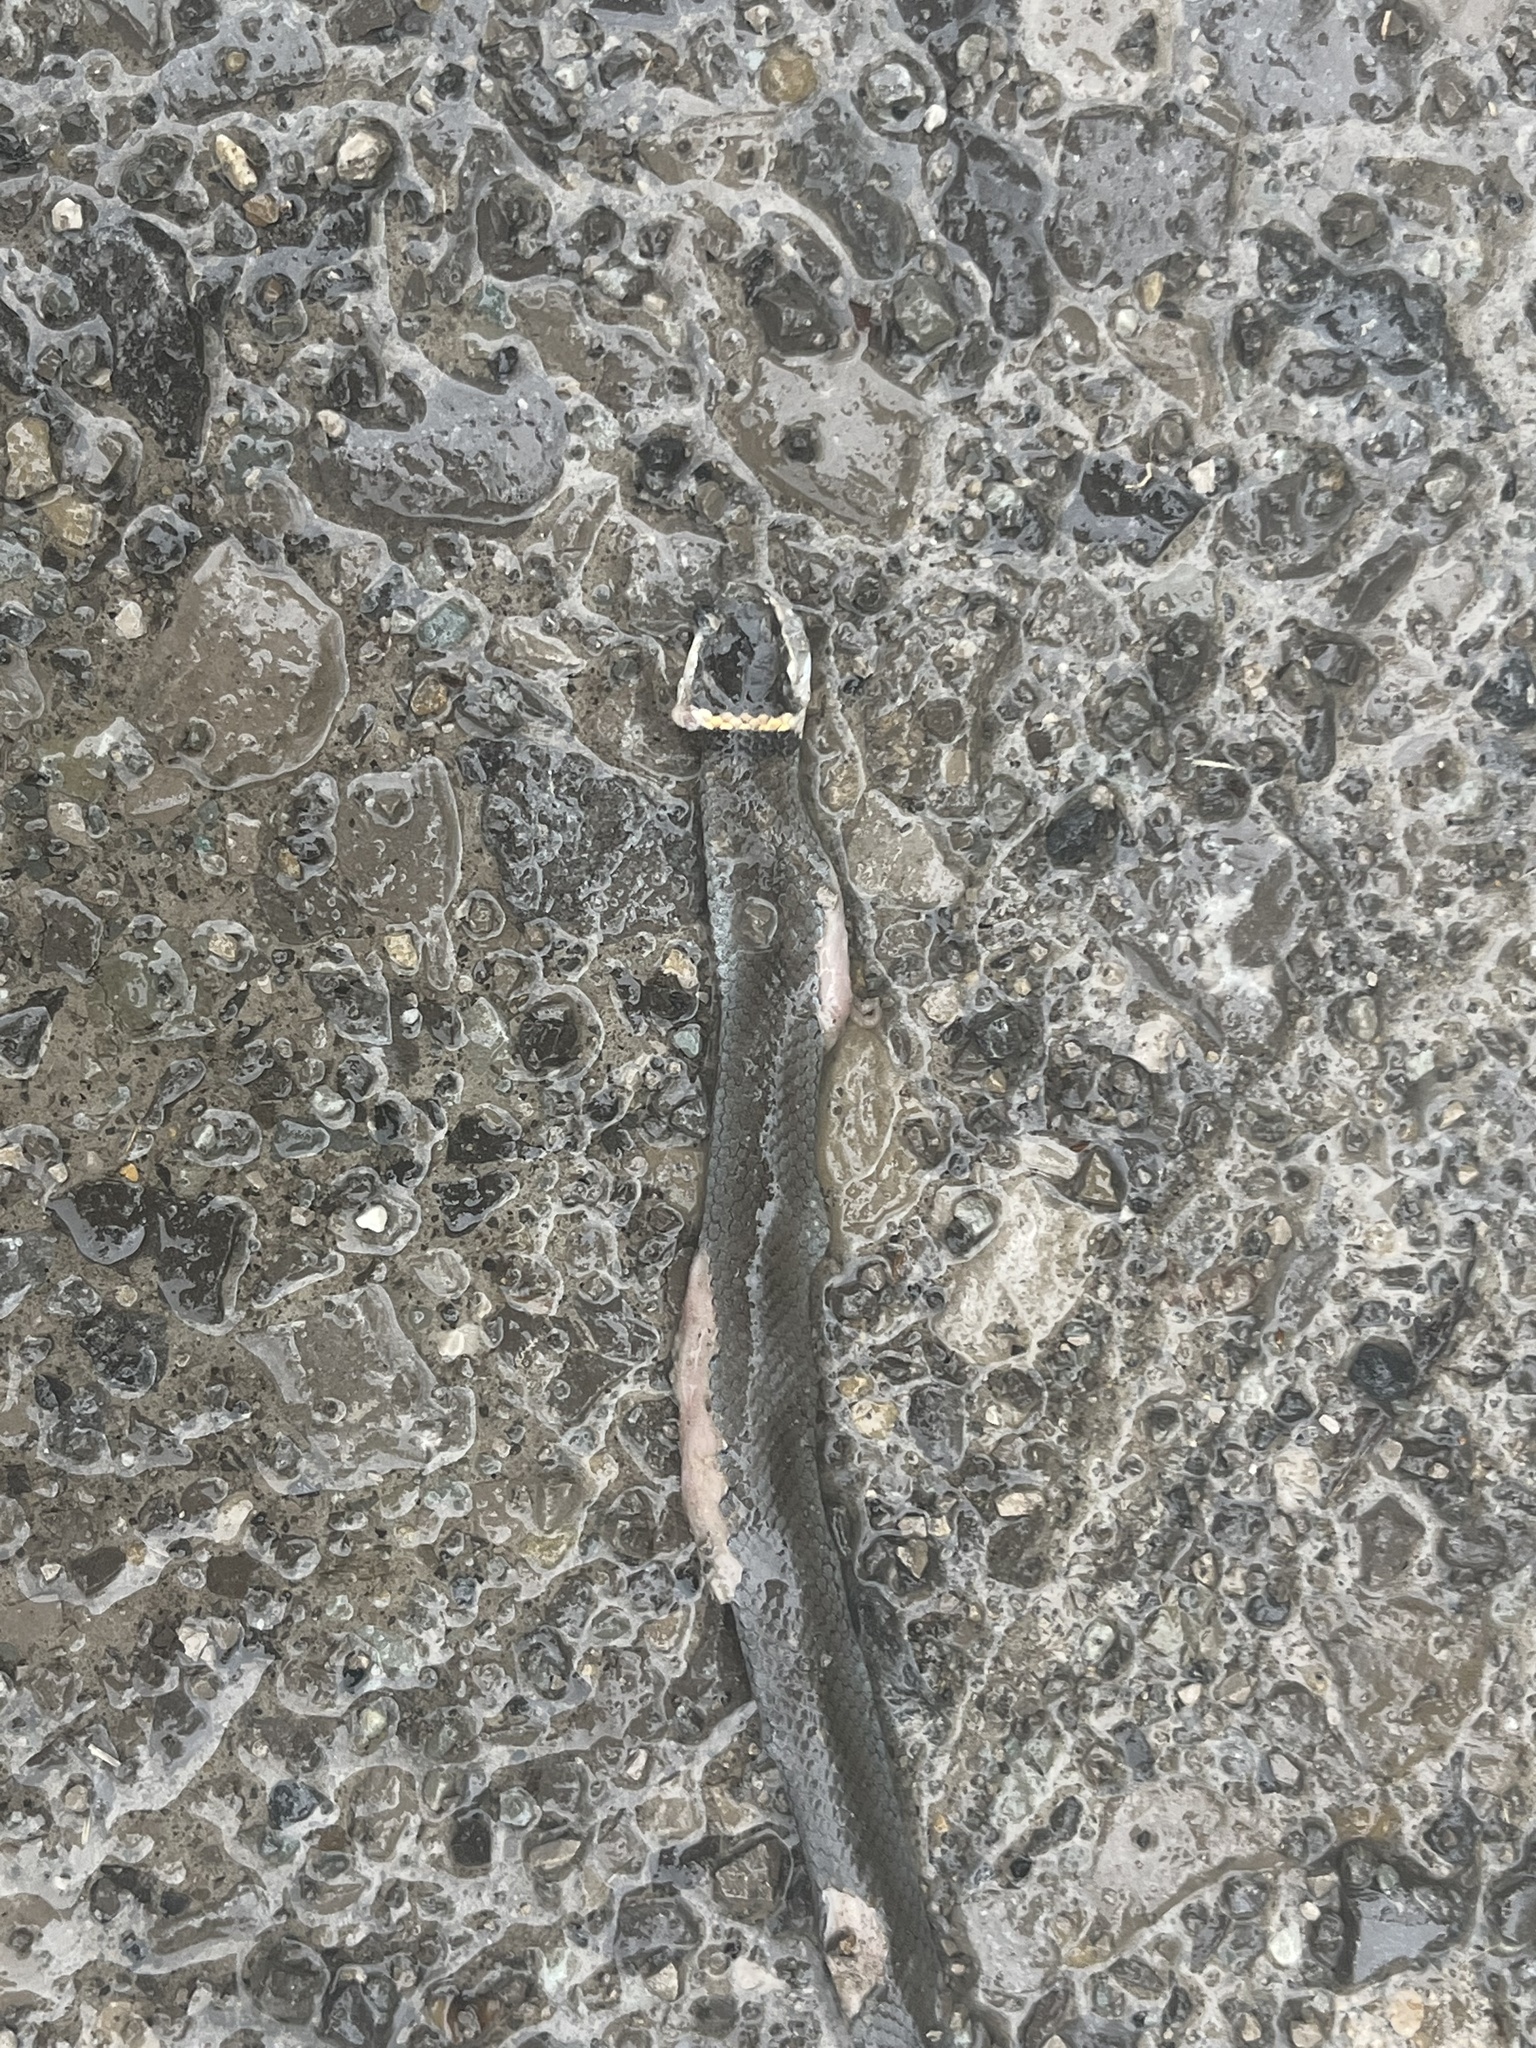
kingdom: Animalia
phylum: Chordata
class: Squamata
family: Colubridae
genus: Diadophis
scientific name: Diadophis punctatus
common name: Ringneck snake
